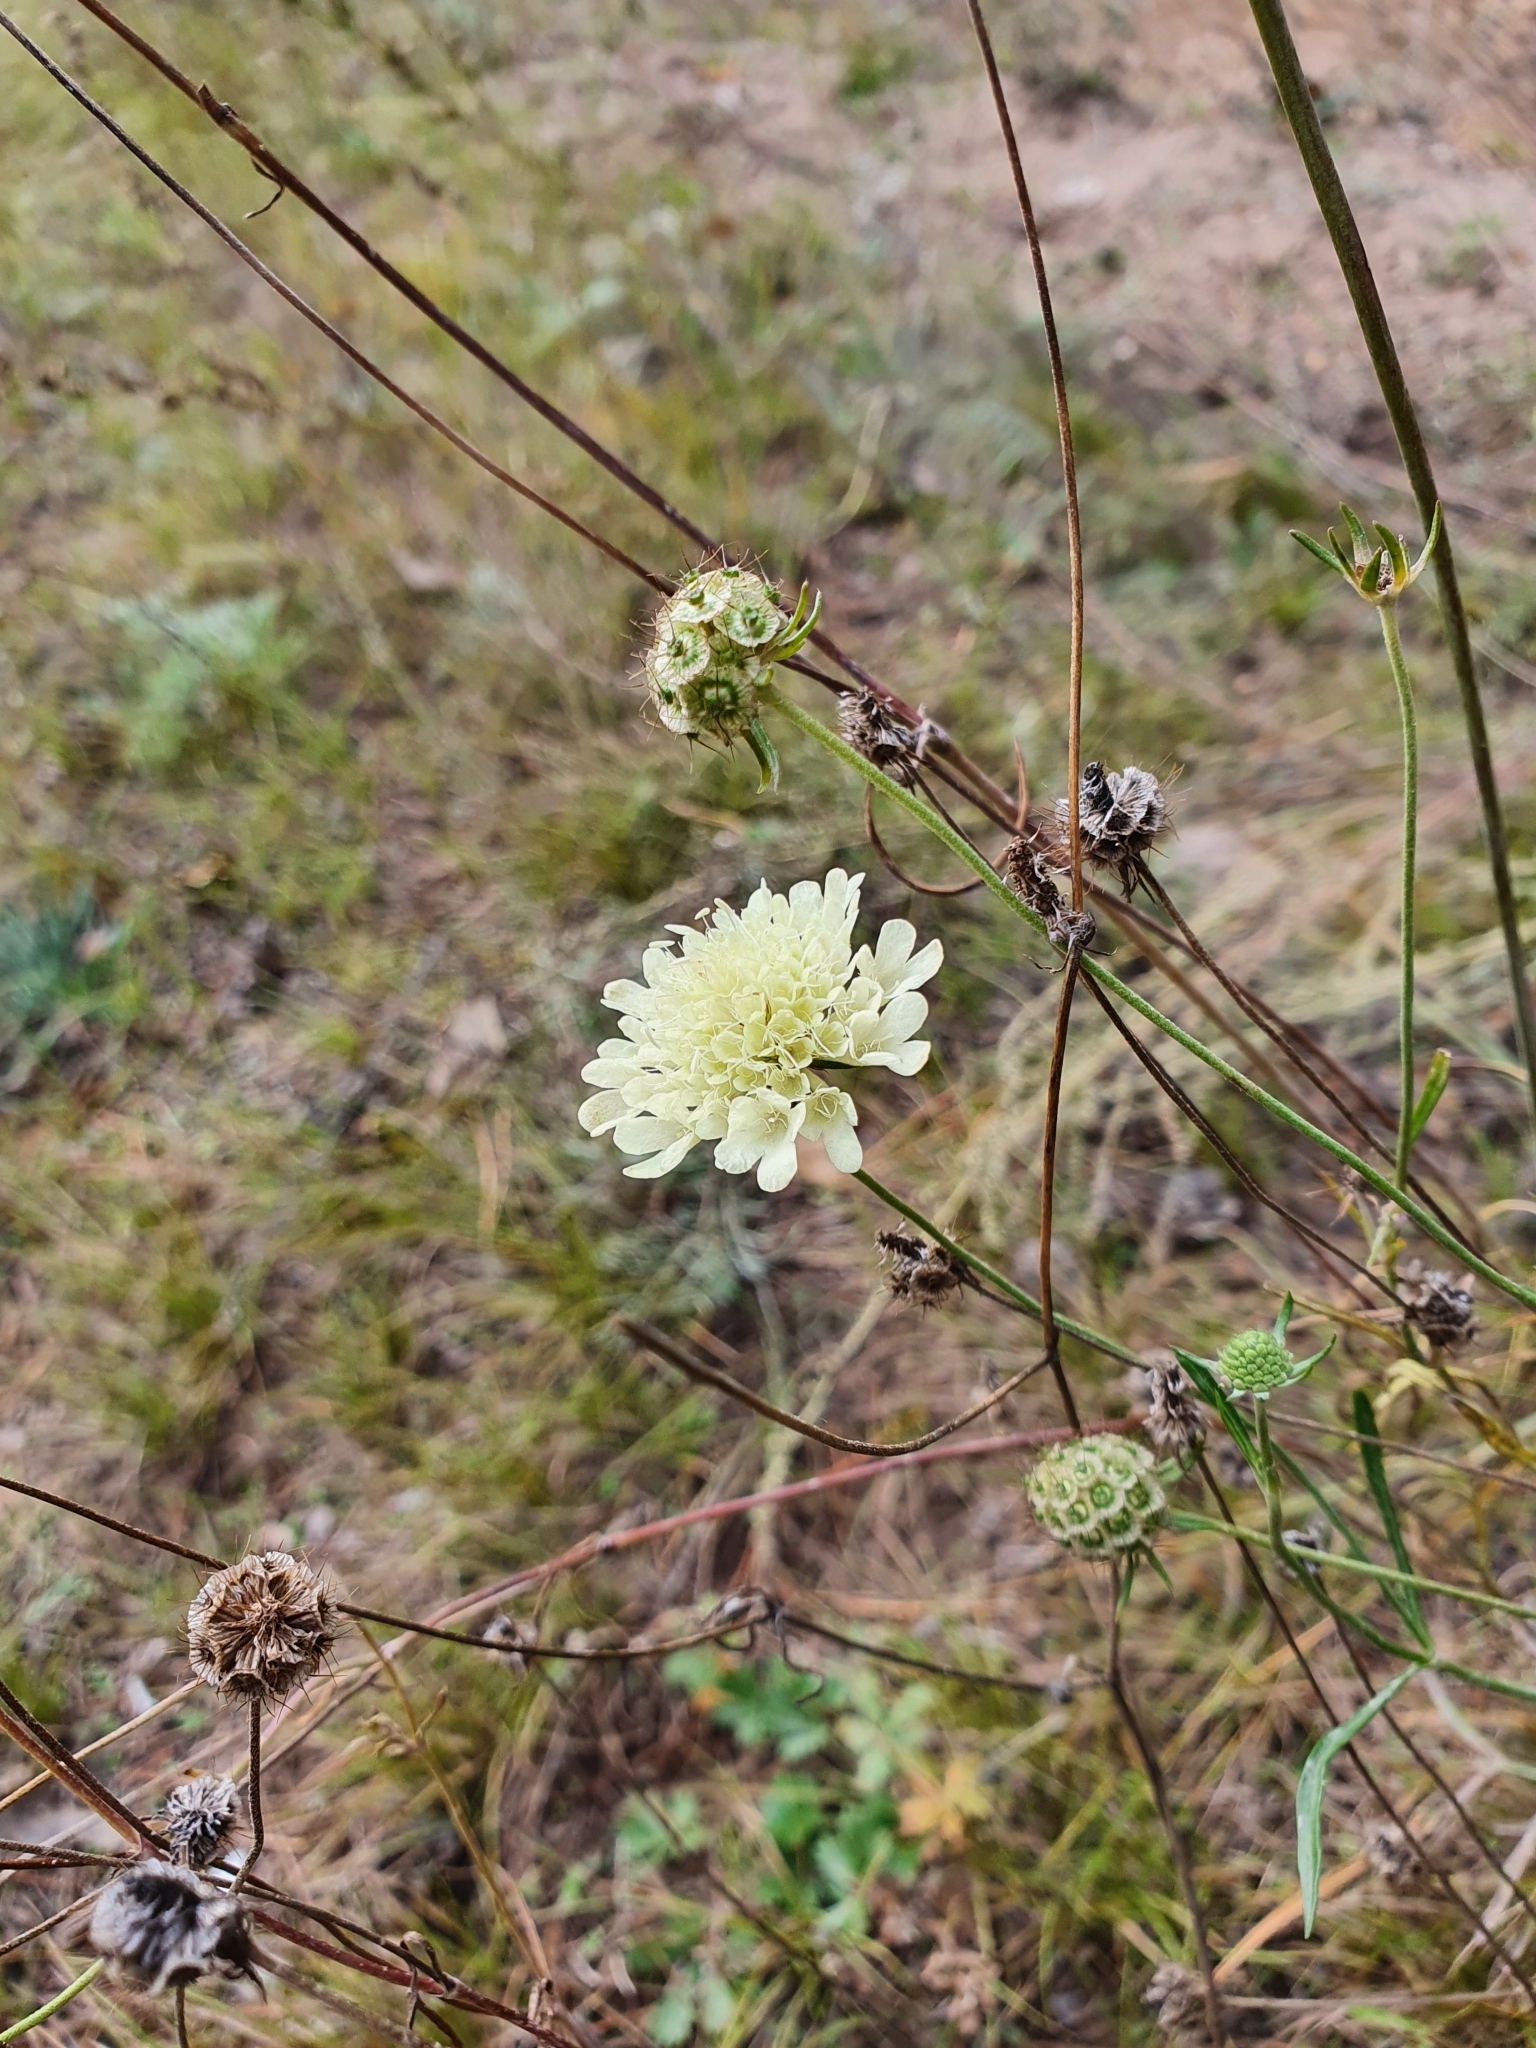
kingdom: Plantae
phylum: Tracheophyta
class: Magnoliopsida
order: Dipsacales
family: Caprifoliaceae
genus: Scabiosa
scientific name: Scabiosa ochroleuca
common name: Cream pincushions
